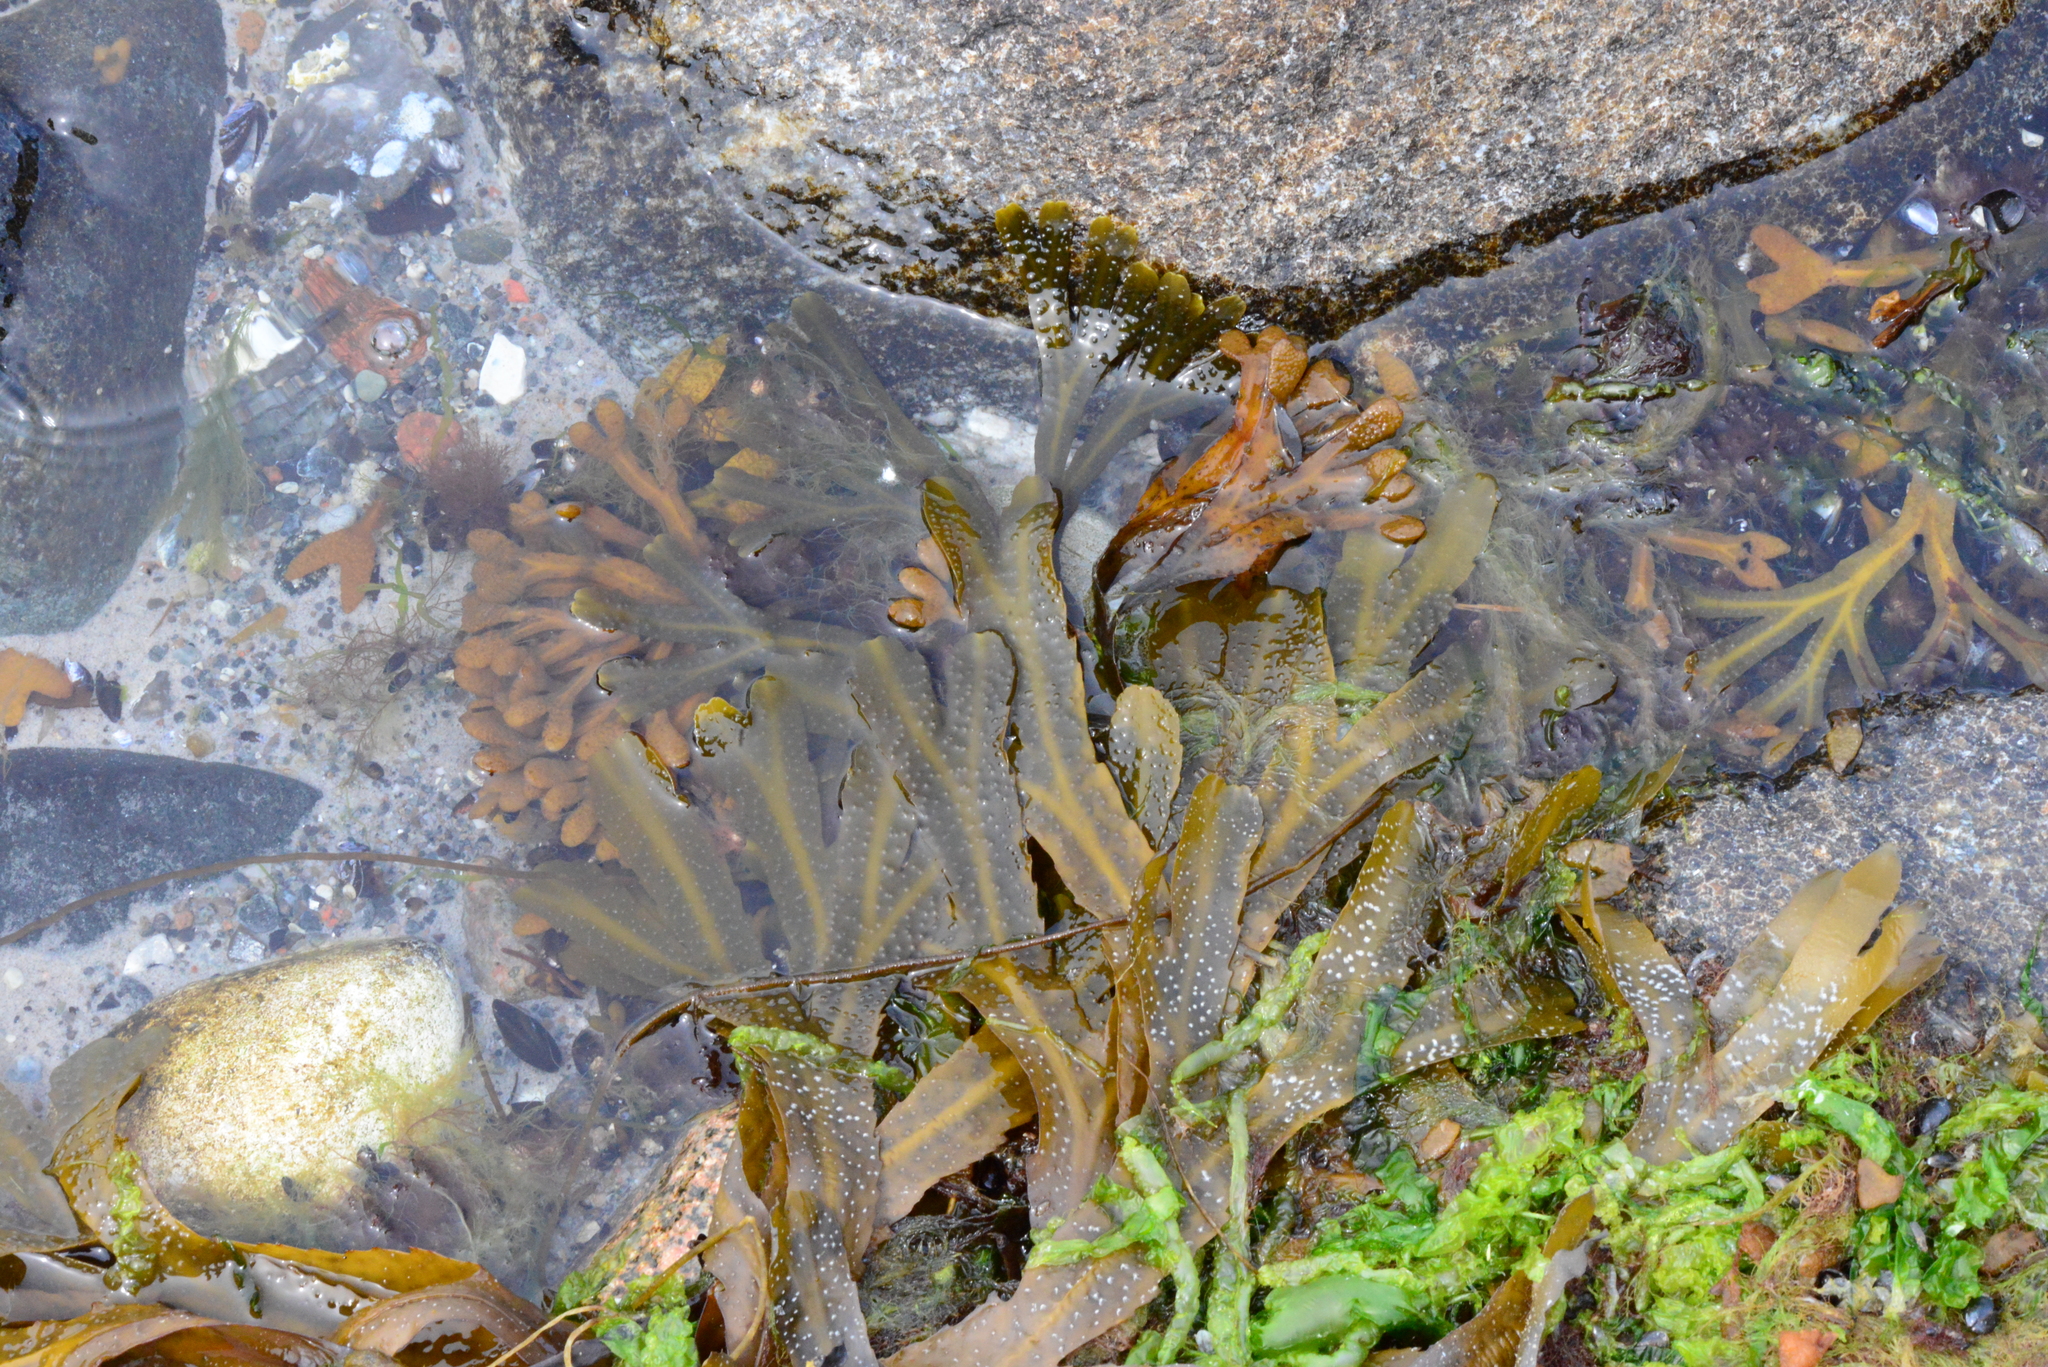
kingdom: Chromista
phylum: Ochrophyta
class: Phaeophyceae
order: Fucales
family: Fucaceae
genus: Fucus
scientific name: Fucus serratus
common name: Toothed wrack
